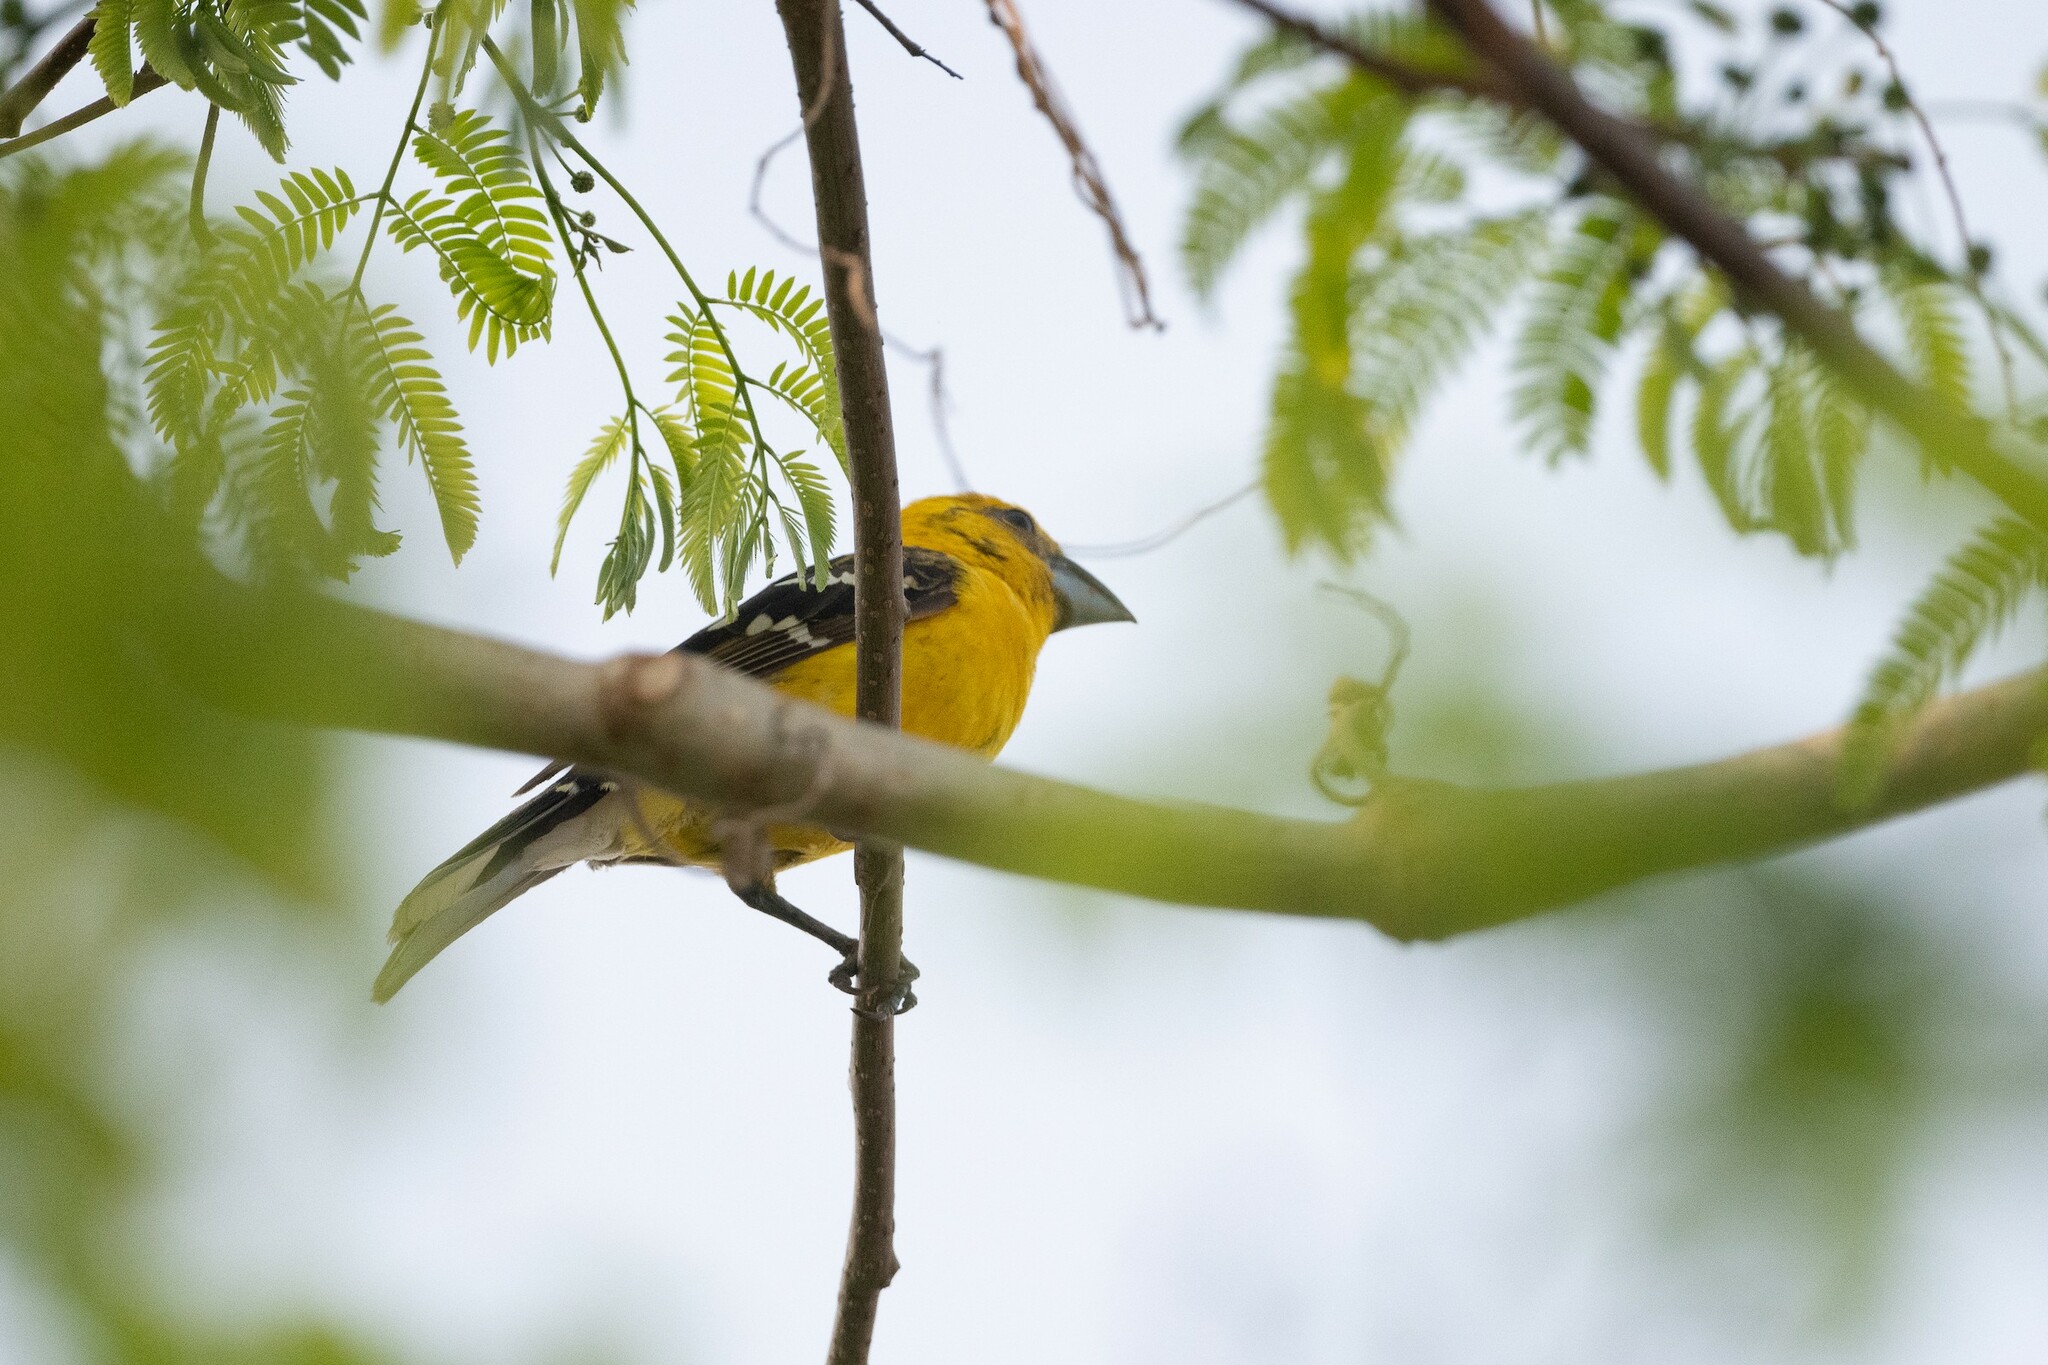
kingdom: Animalia
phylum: Chordata
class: Aves
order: Passeriformes
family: Cardinalidae
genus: Pheucticus
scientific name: Pheucticus chrysopeplus
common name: Yellow grosbeak
